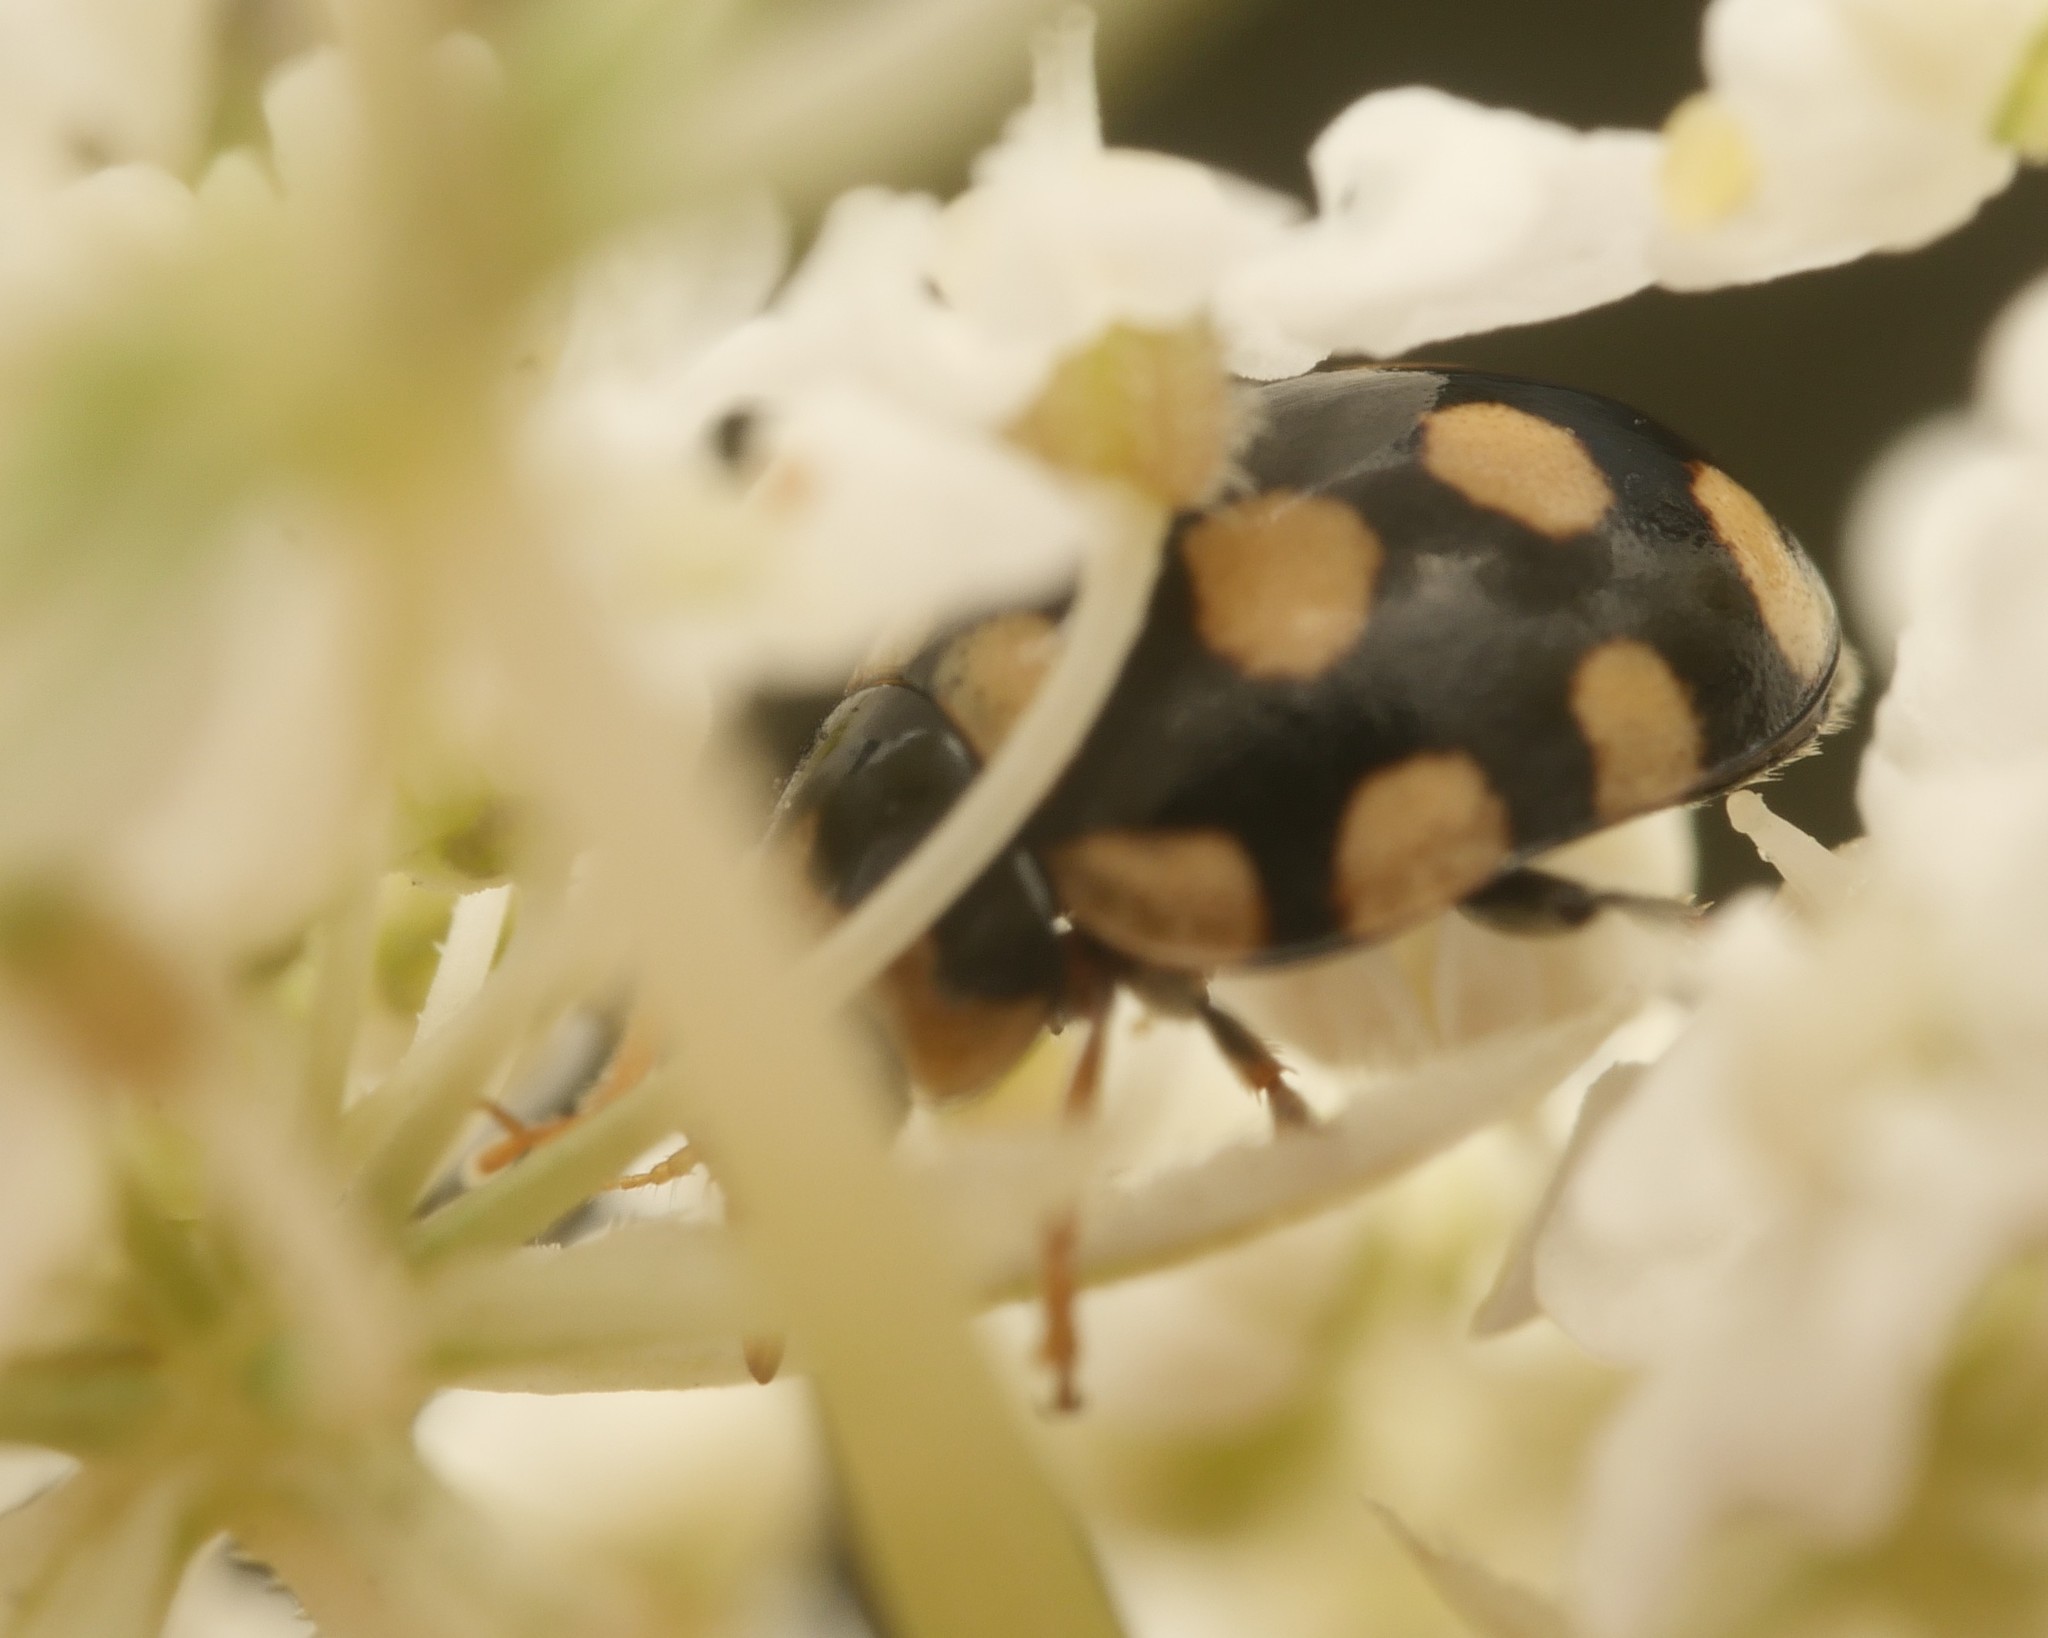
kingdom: Animalia
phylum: Arthropoda
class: Insecta
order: Coleoptera
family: Coccinellidae
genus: Coccinula
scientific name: Coccinula quatuordecimpustulata
